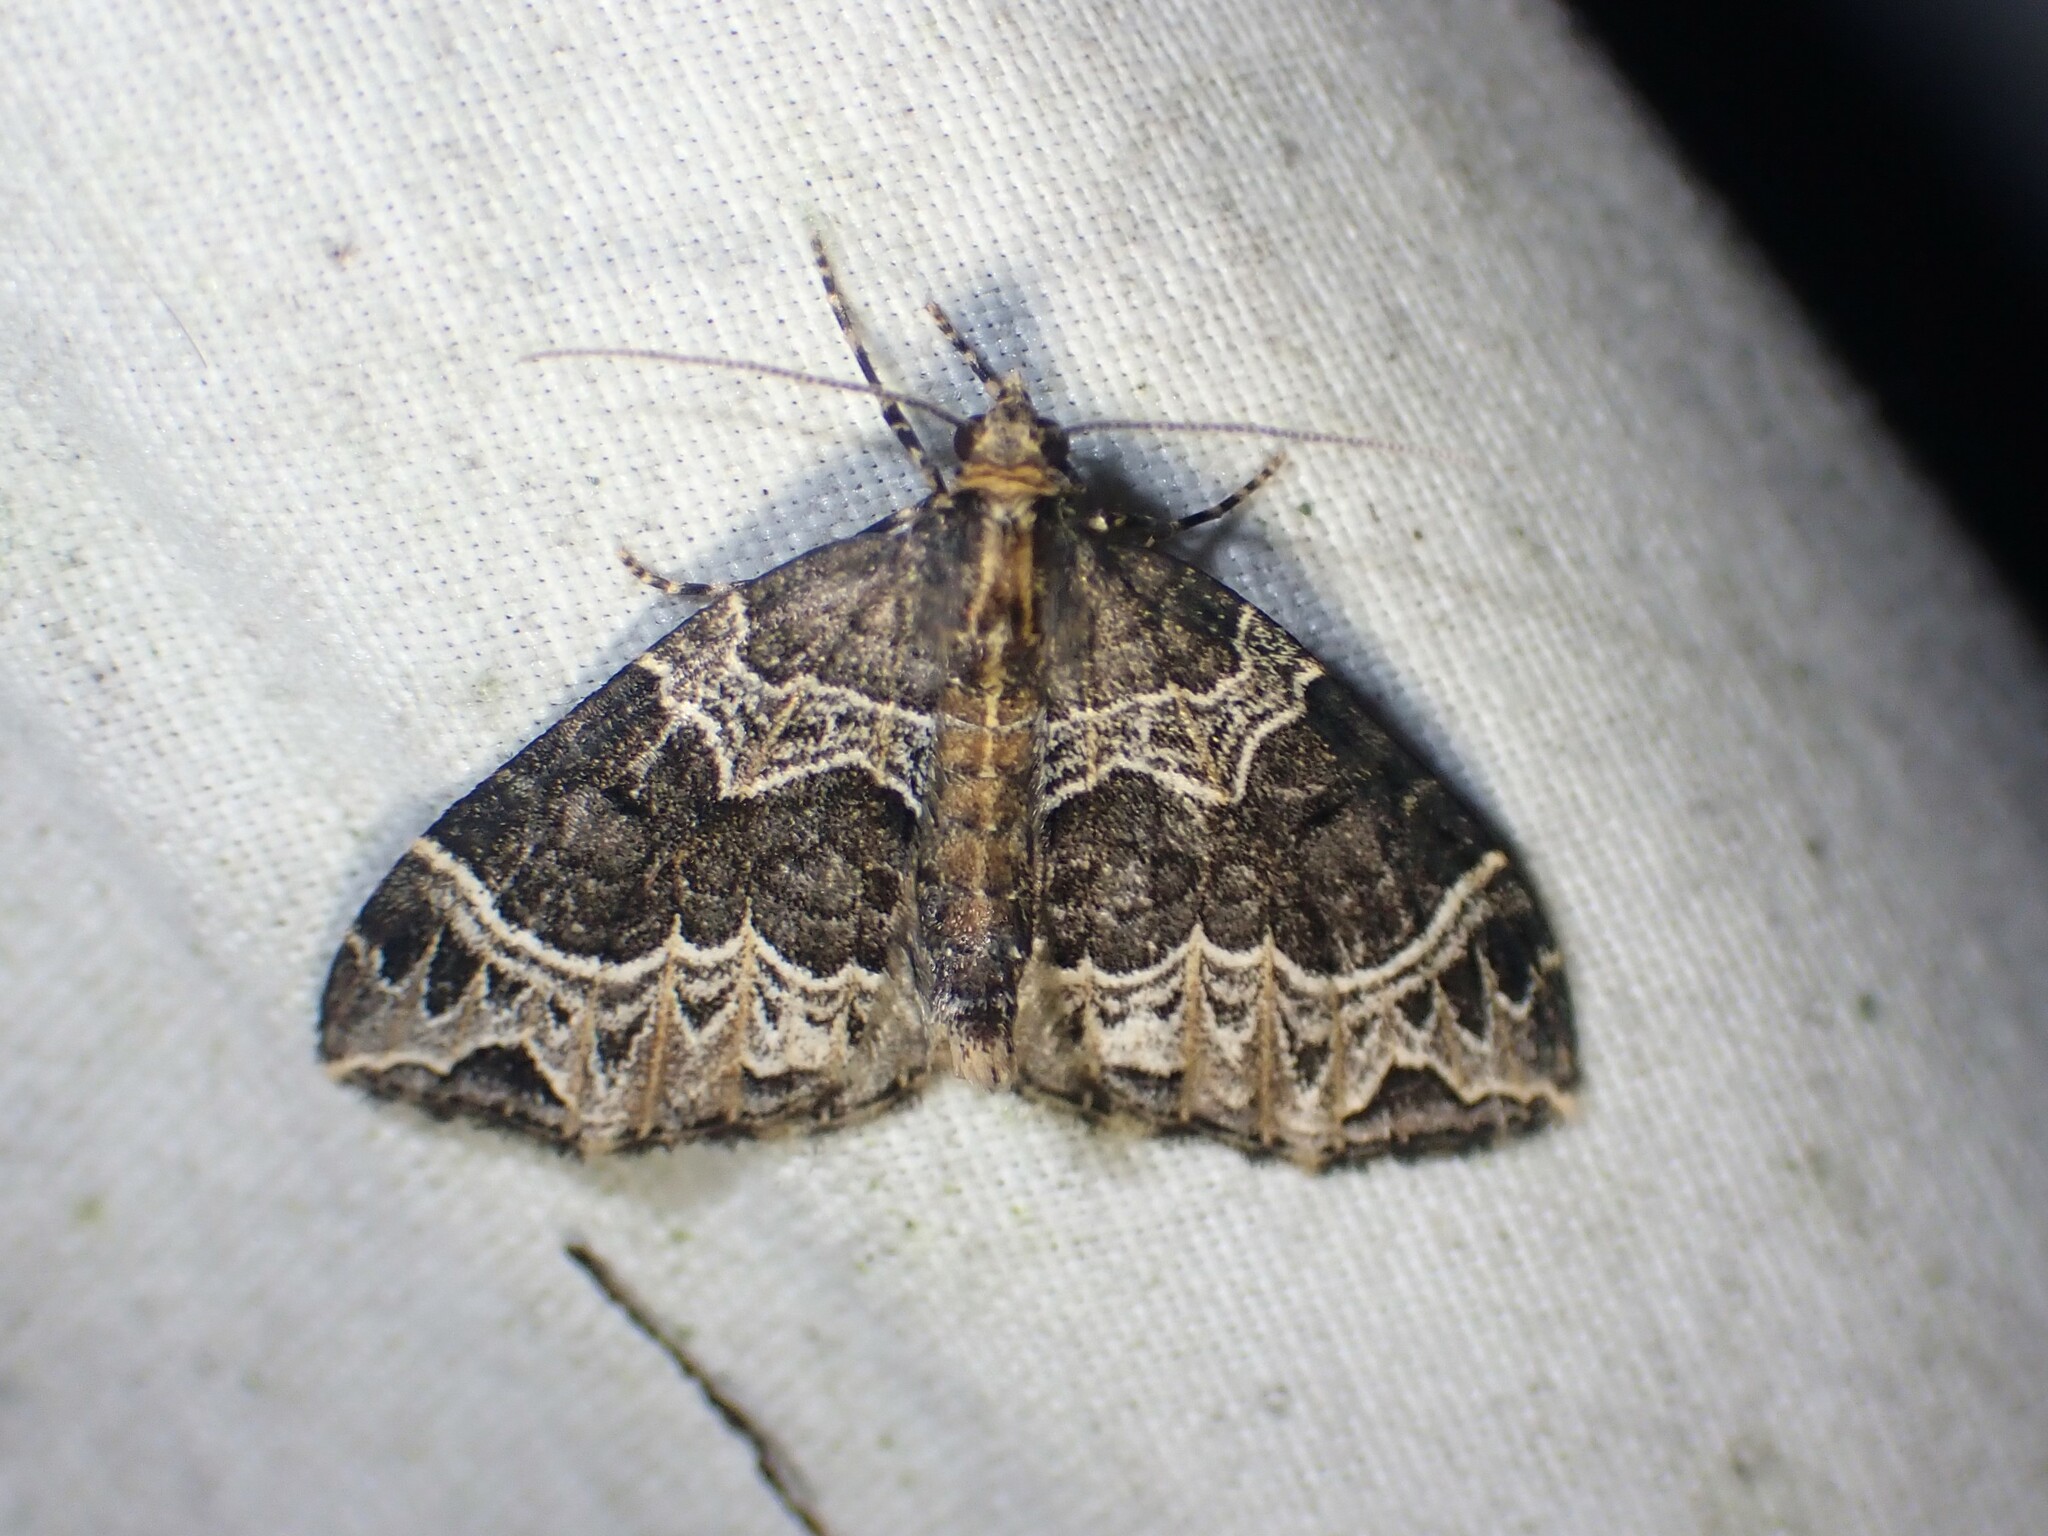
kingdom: Animalia
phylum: Arthropoda
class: Insecta
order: Lepidoptera
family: Geometridae
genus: Ecliptopera
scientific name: Ecliptopera silaceata
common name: Small phoenix
